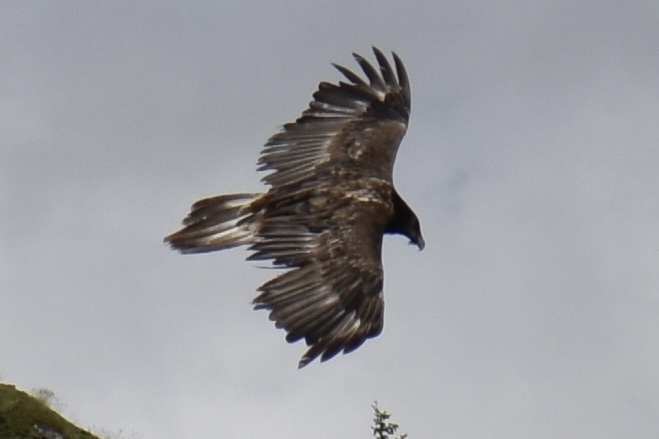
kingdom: Animalia
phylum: Chordata
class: Aves
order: Accipitriformes
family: Accipitridae
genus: Gypaetus
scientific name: Gypaetus barbatus
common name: Bearded vulture
